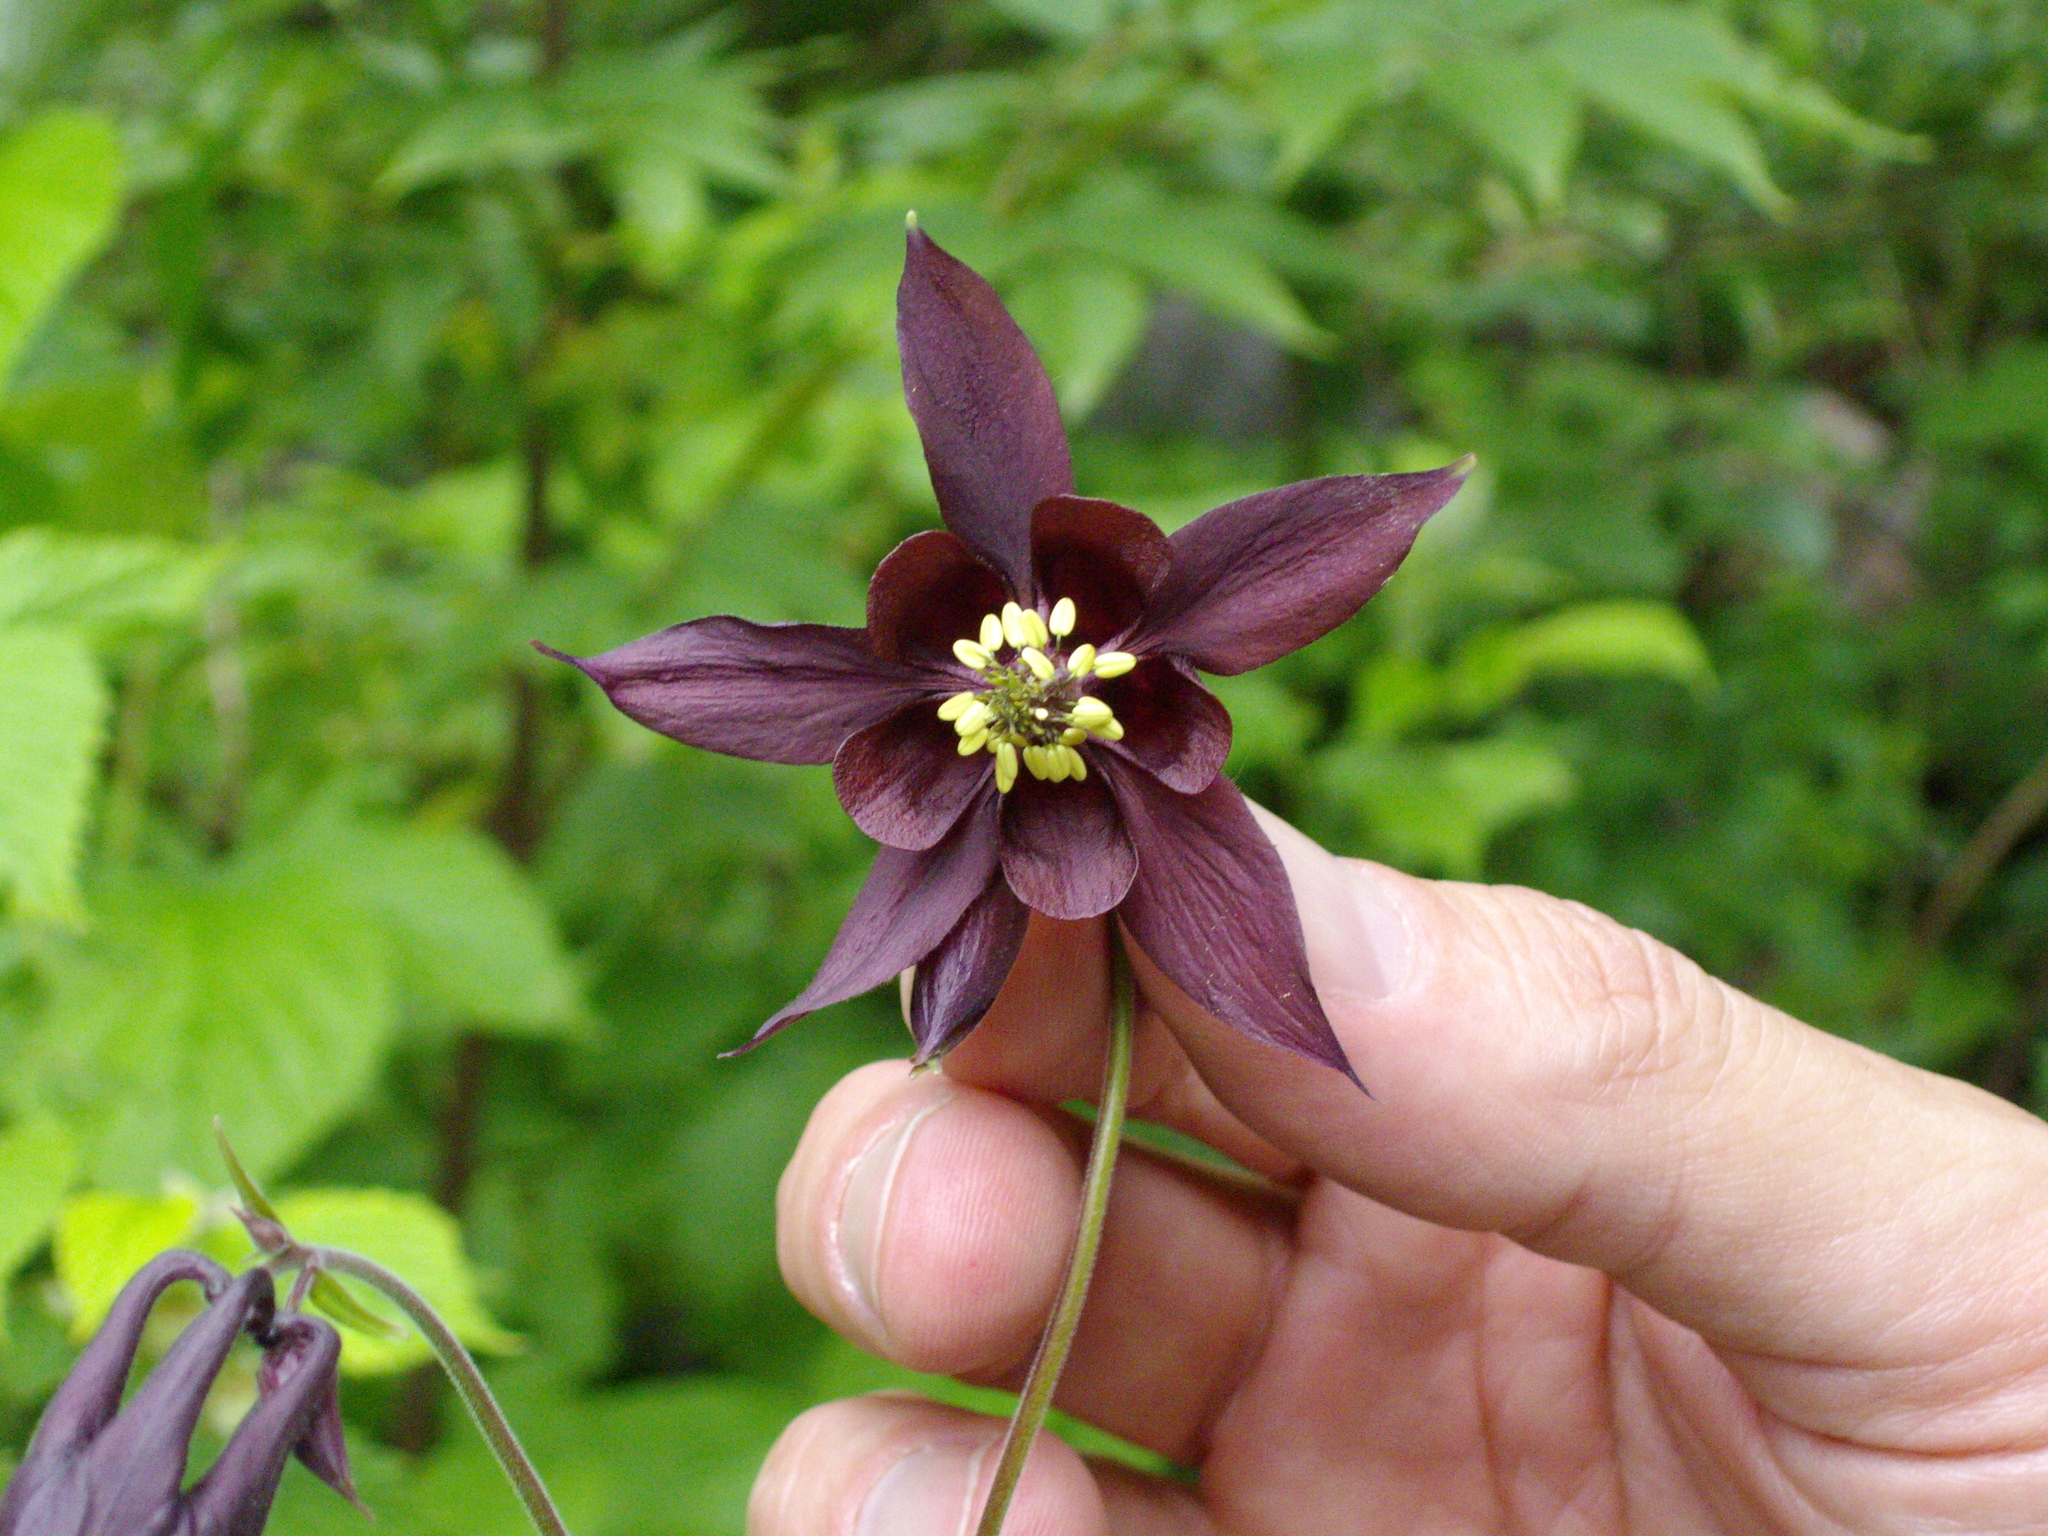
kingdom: Plantae
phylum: Tracheophyta
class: Magnoliopsida
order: Ranunculales
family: Ranunculaceae
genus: Aquilegia
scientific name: Aquilegia atrata
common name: Dark columbine
